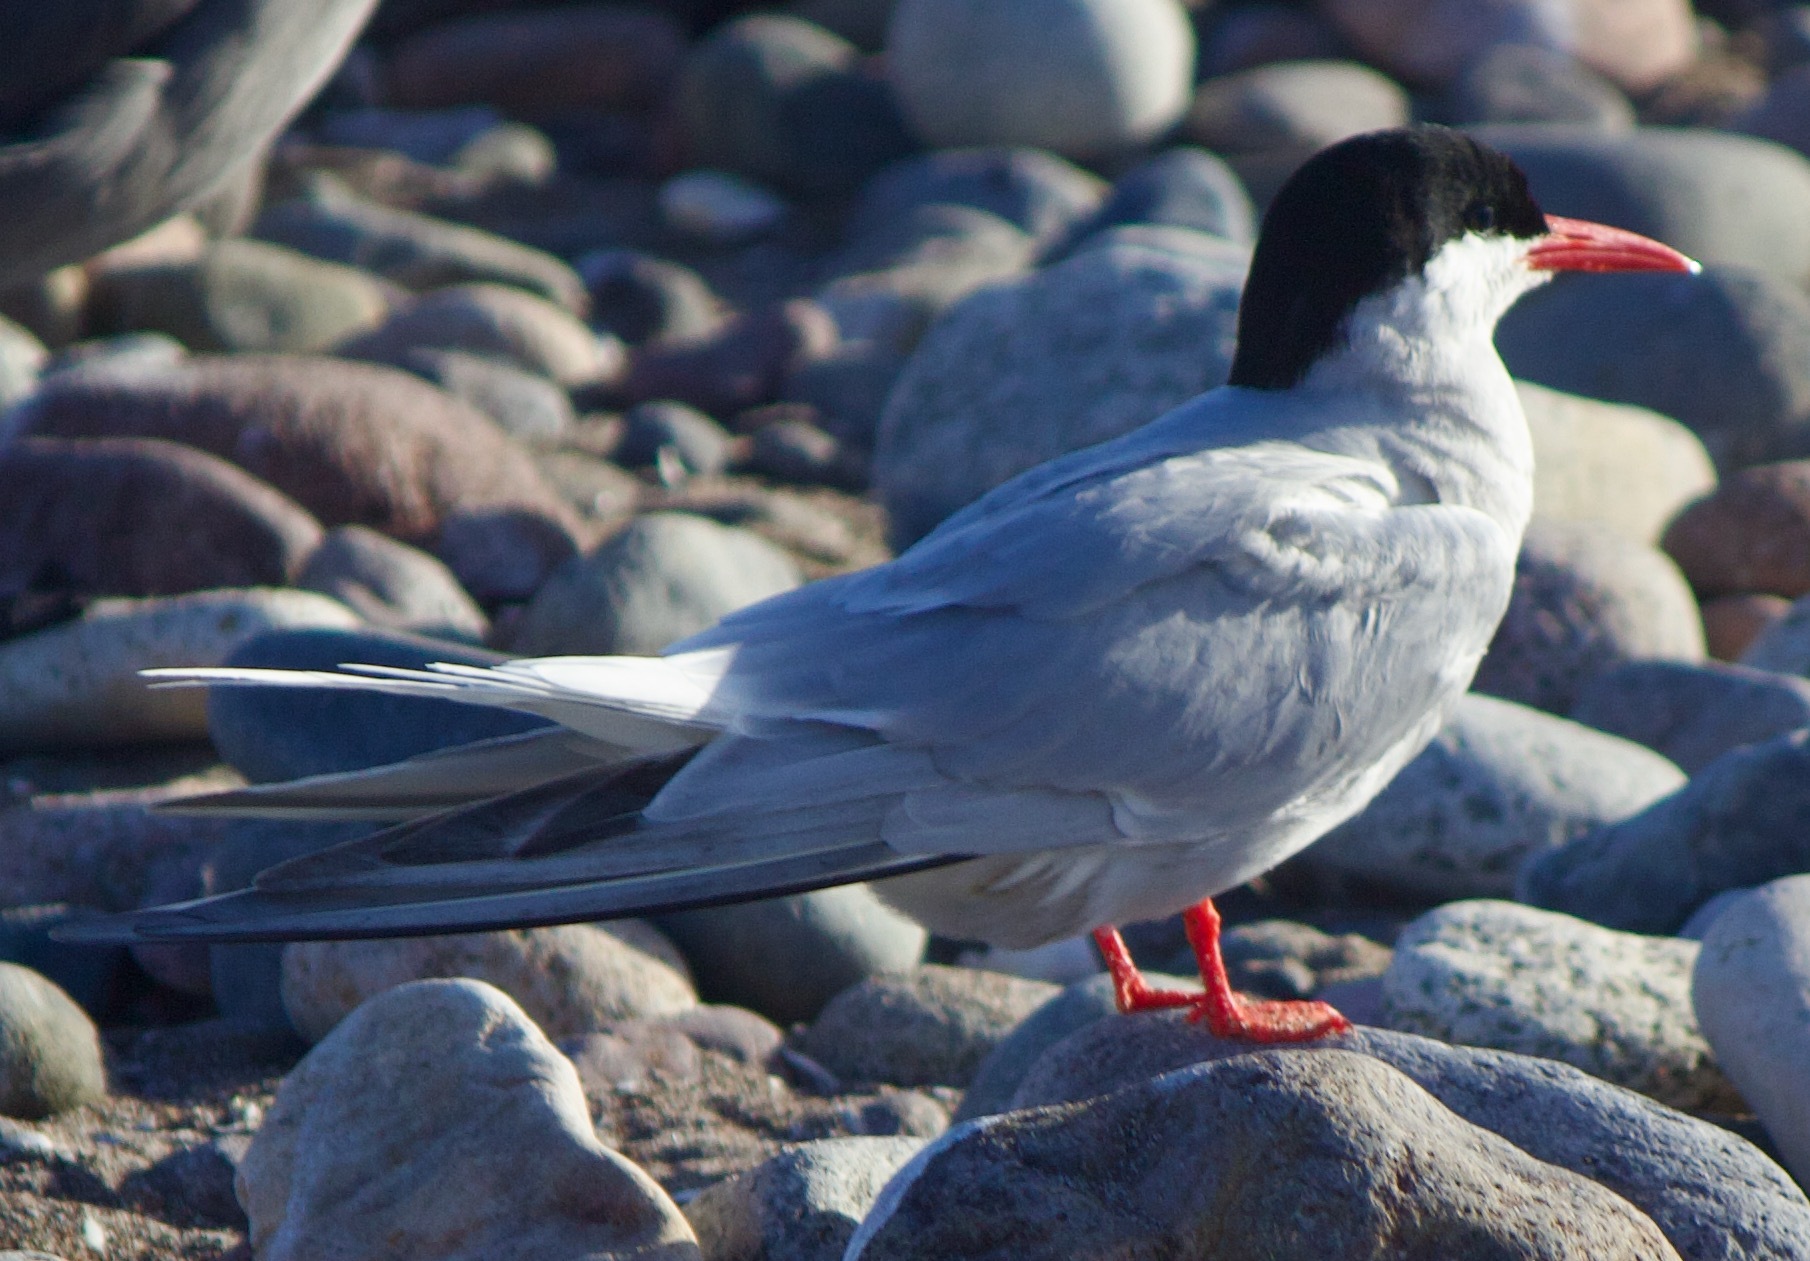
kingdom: Animalia
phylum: Chordata
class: Aves
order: Charadriiformes
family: Laridae
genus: Sterna
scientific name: Sterna hirundinacea
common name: South american tern
